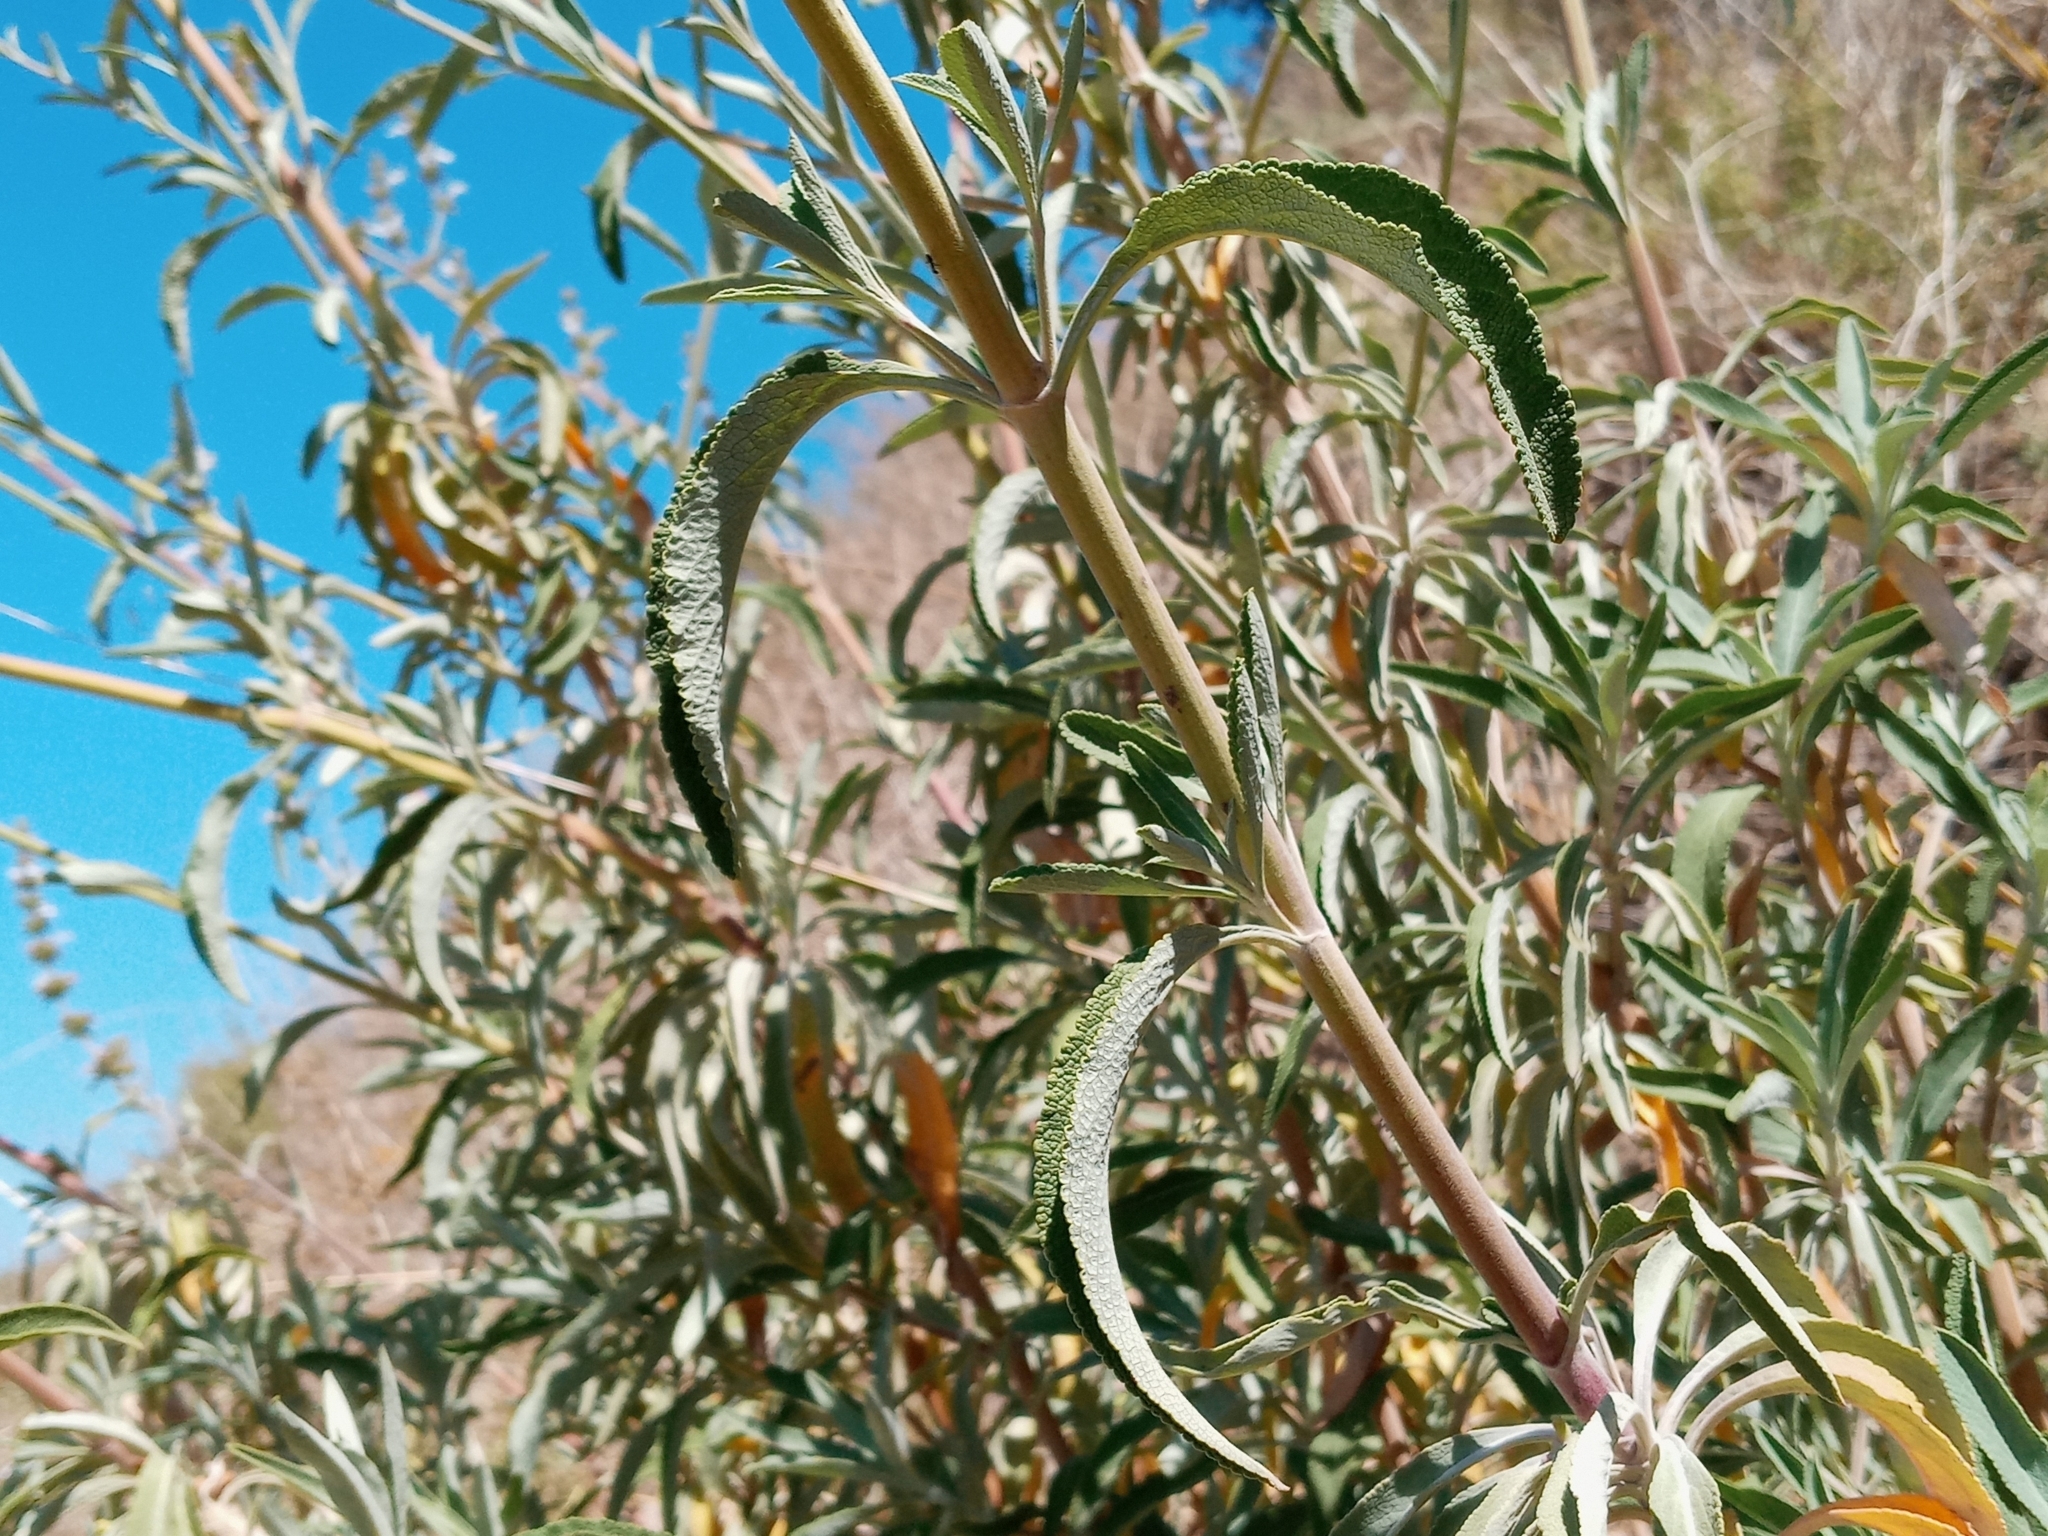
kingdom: Plantae
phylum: Tracheophyta
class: Magnoliopsida
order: Lamiales
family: Lamiaceae
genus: Salvia
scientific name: Salvia
